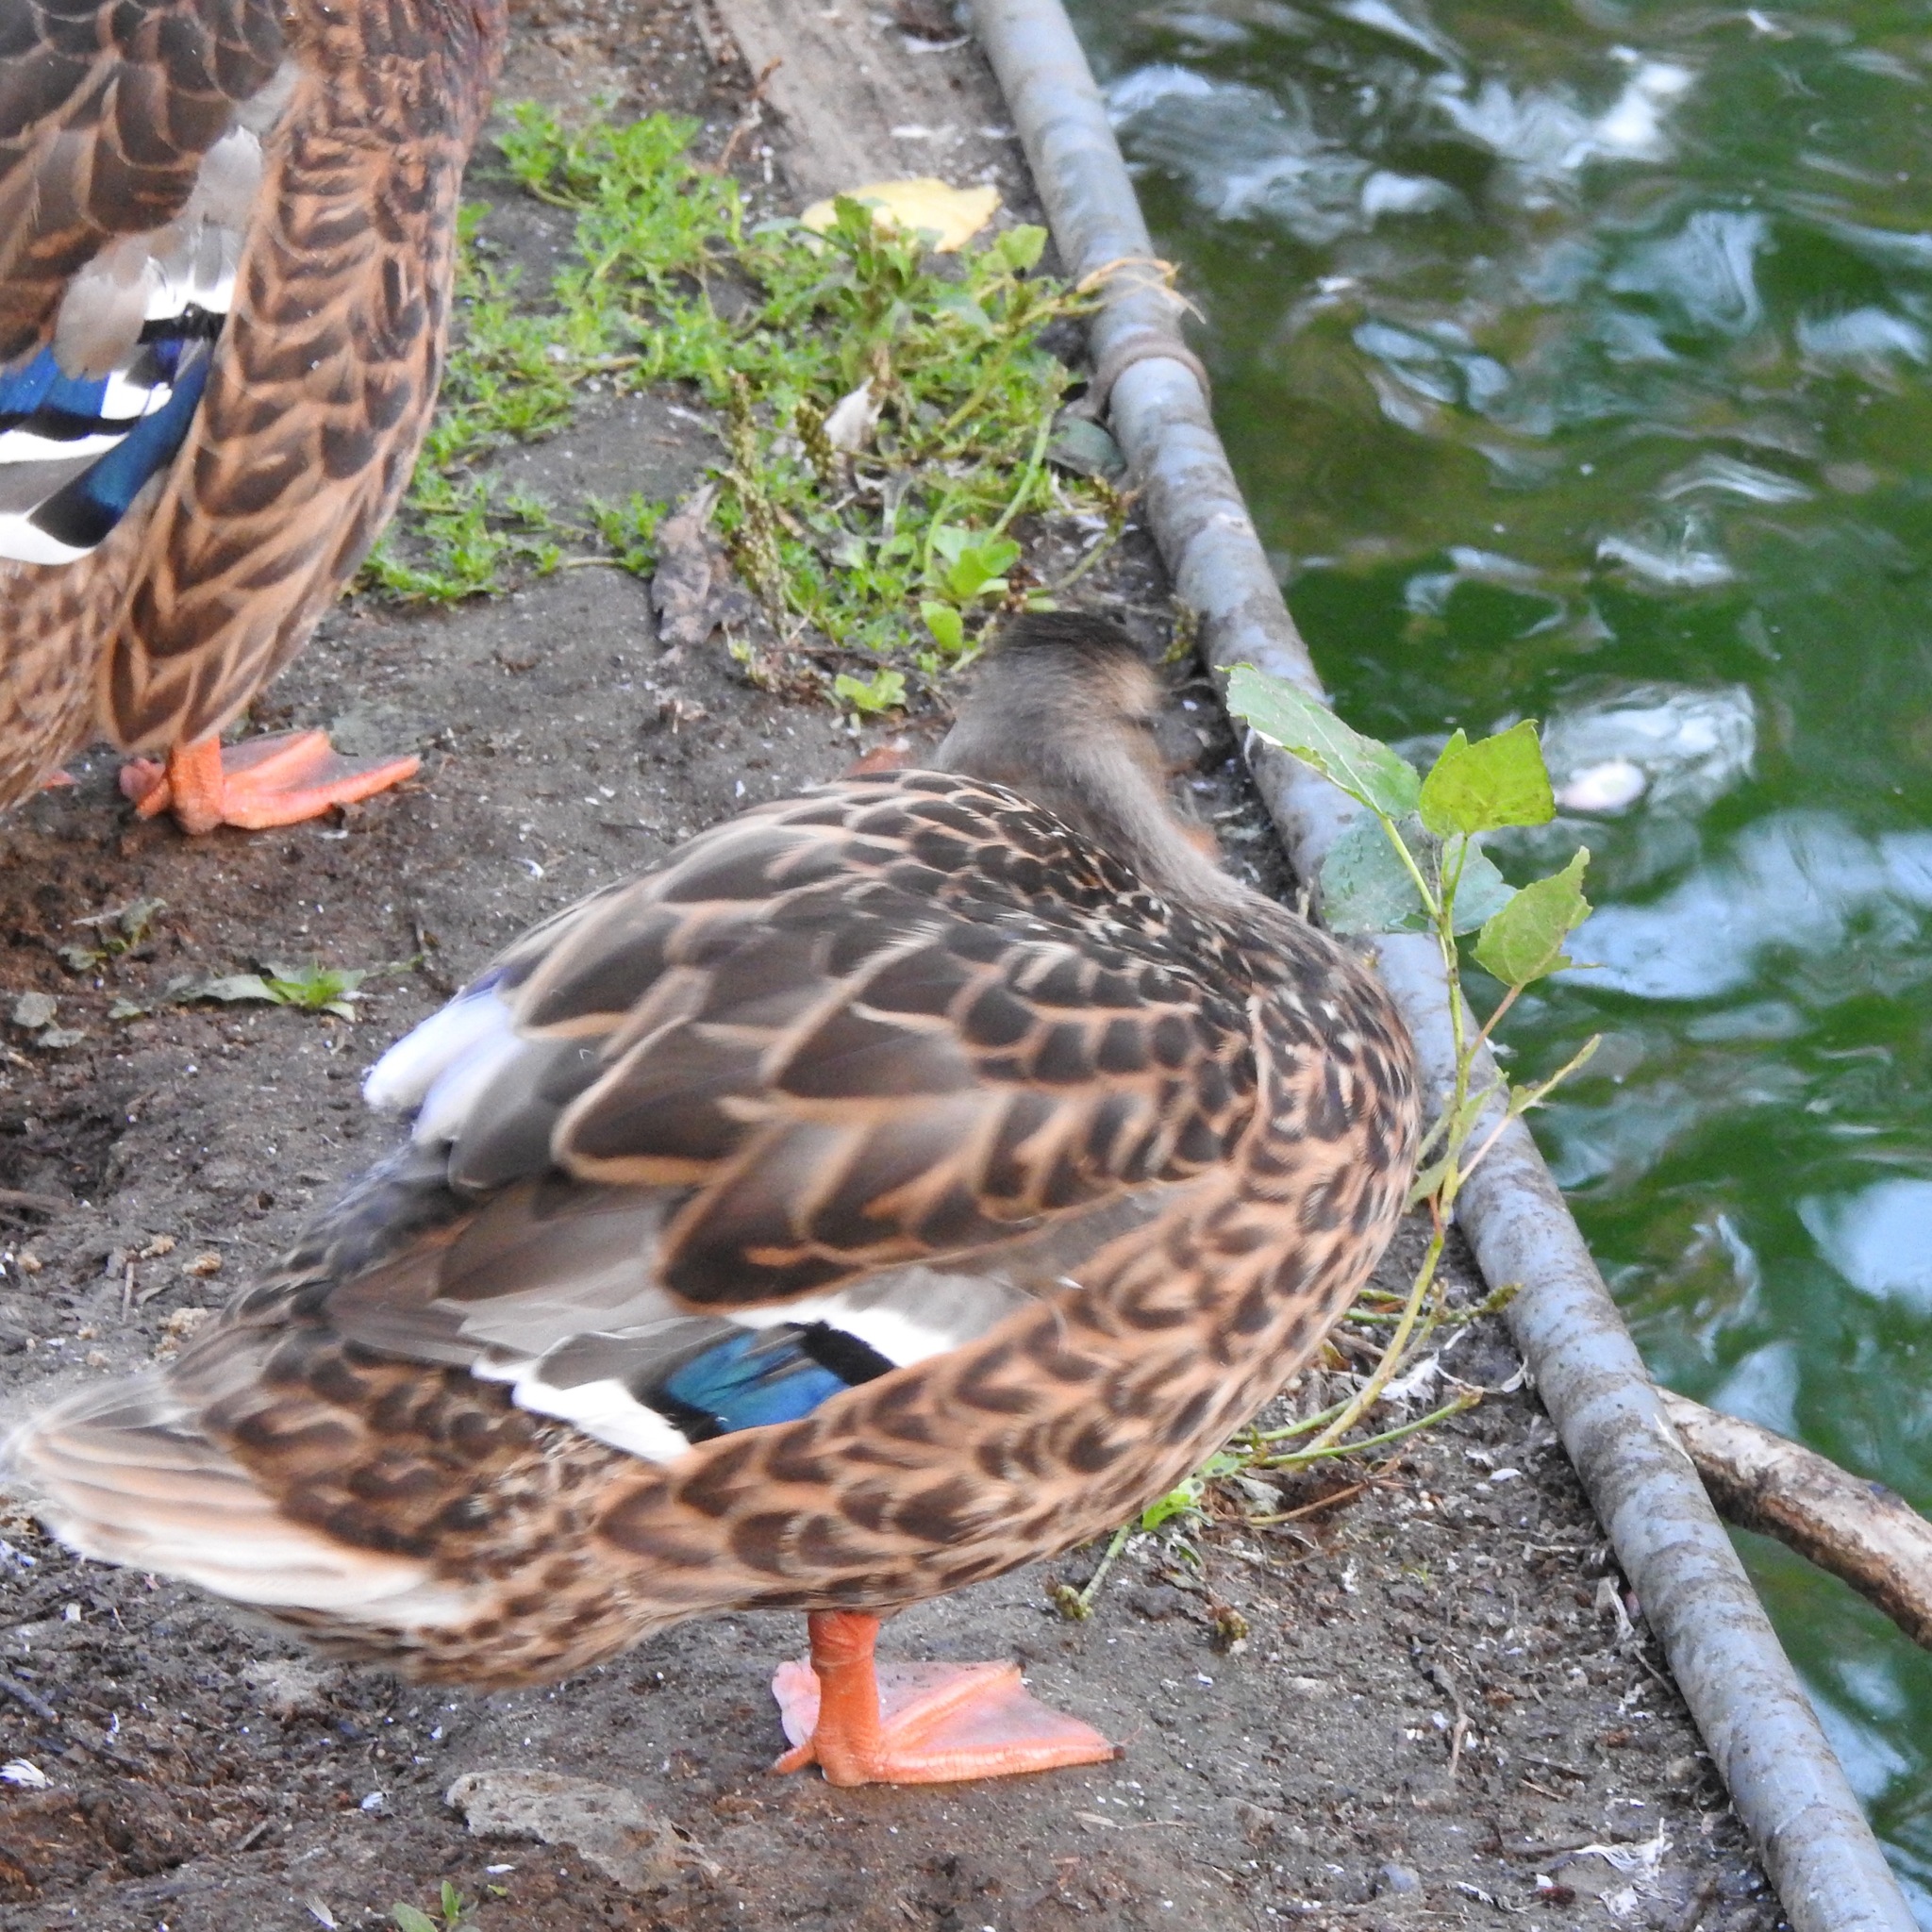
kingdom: Animalia
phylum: Chordata
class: Aves
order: Anseriformes
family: Anatidae
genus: Anas
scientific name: Anas platyrhynchos
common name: Mallard
